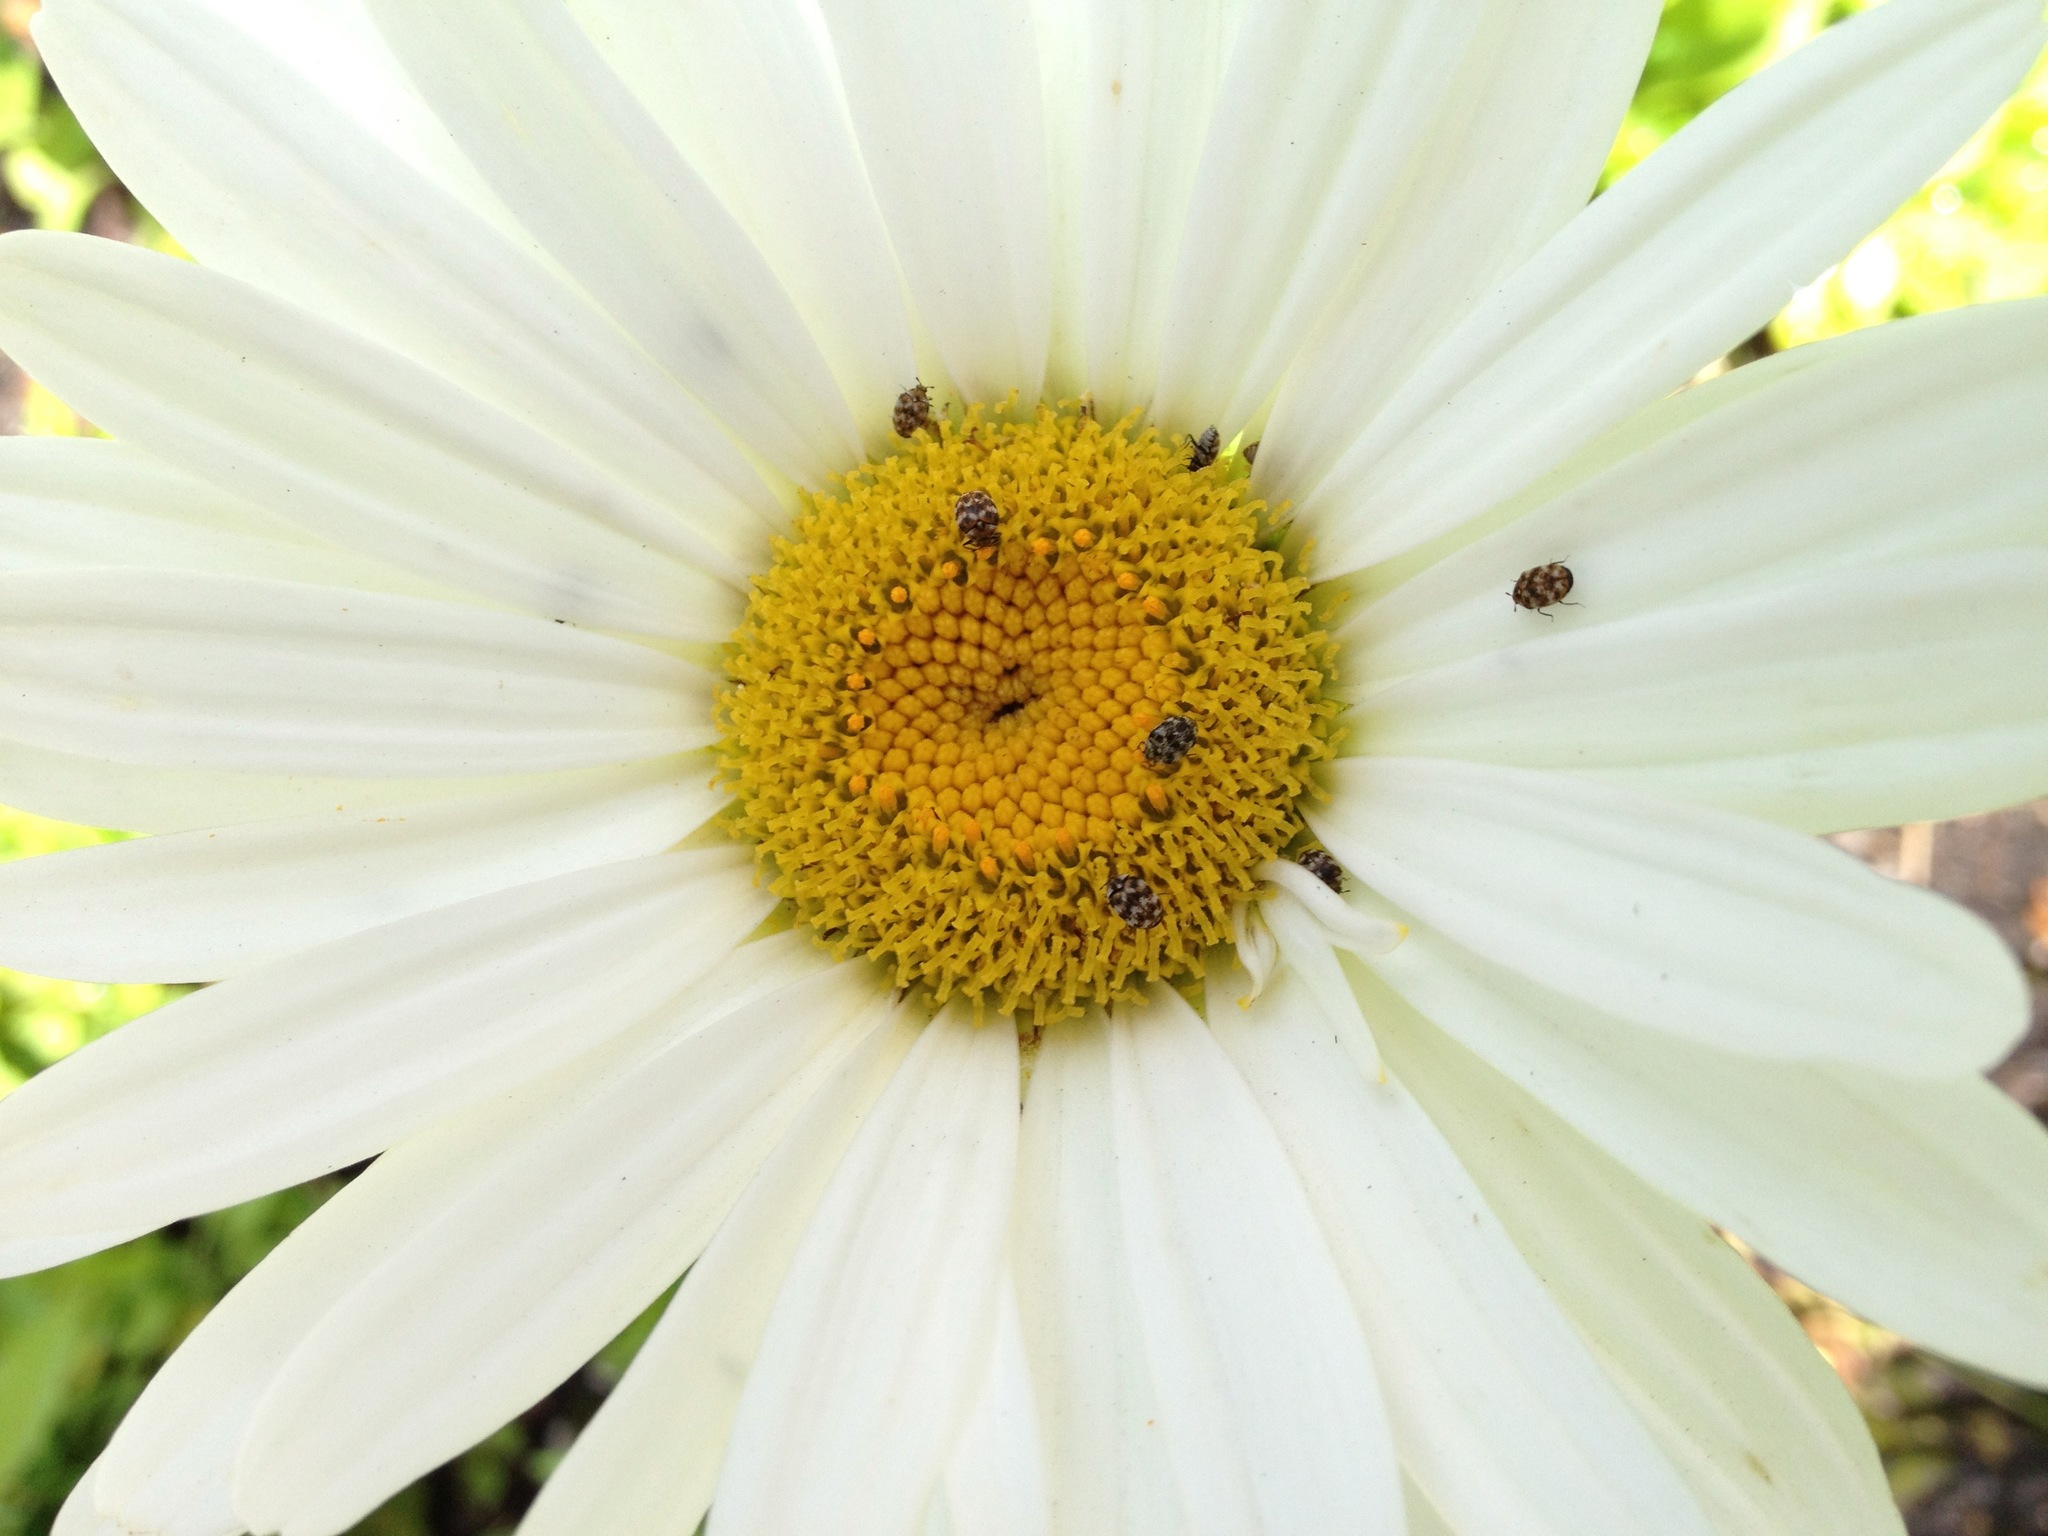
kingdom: Animalia
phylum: Arthropoda
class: Insecta
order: Coleoptera
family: Dermestidae
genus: Anthrenus
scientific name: Anthrenus verbasci
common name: Varied carpet beetle
